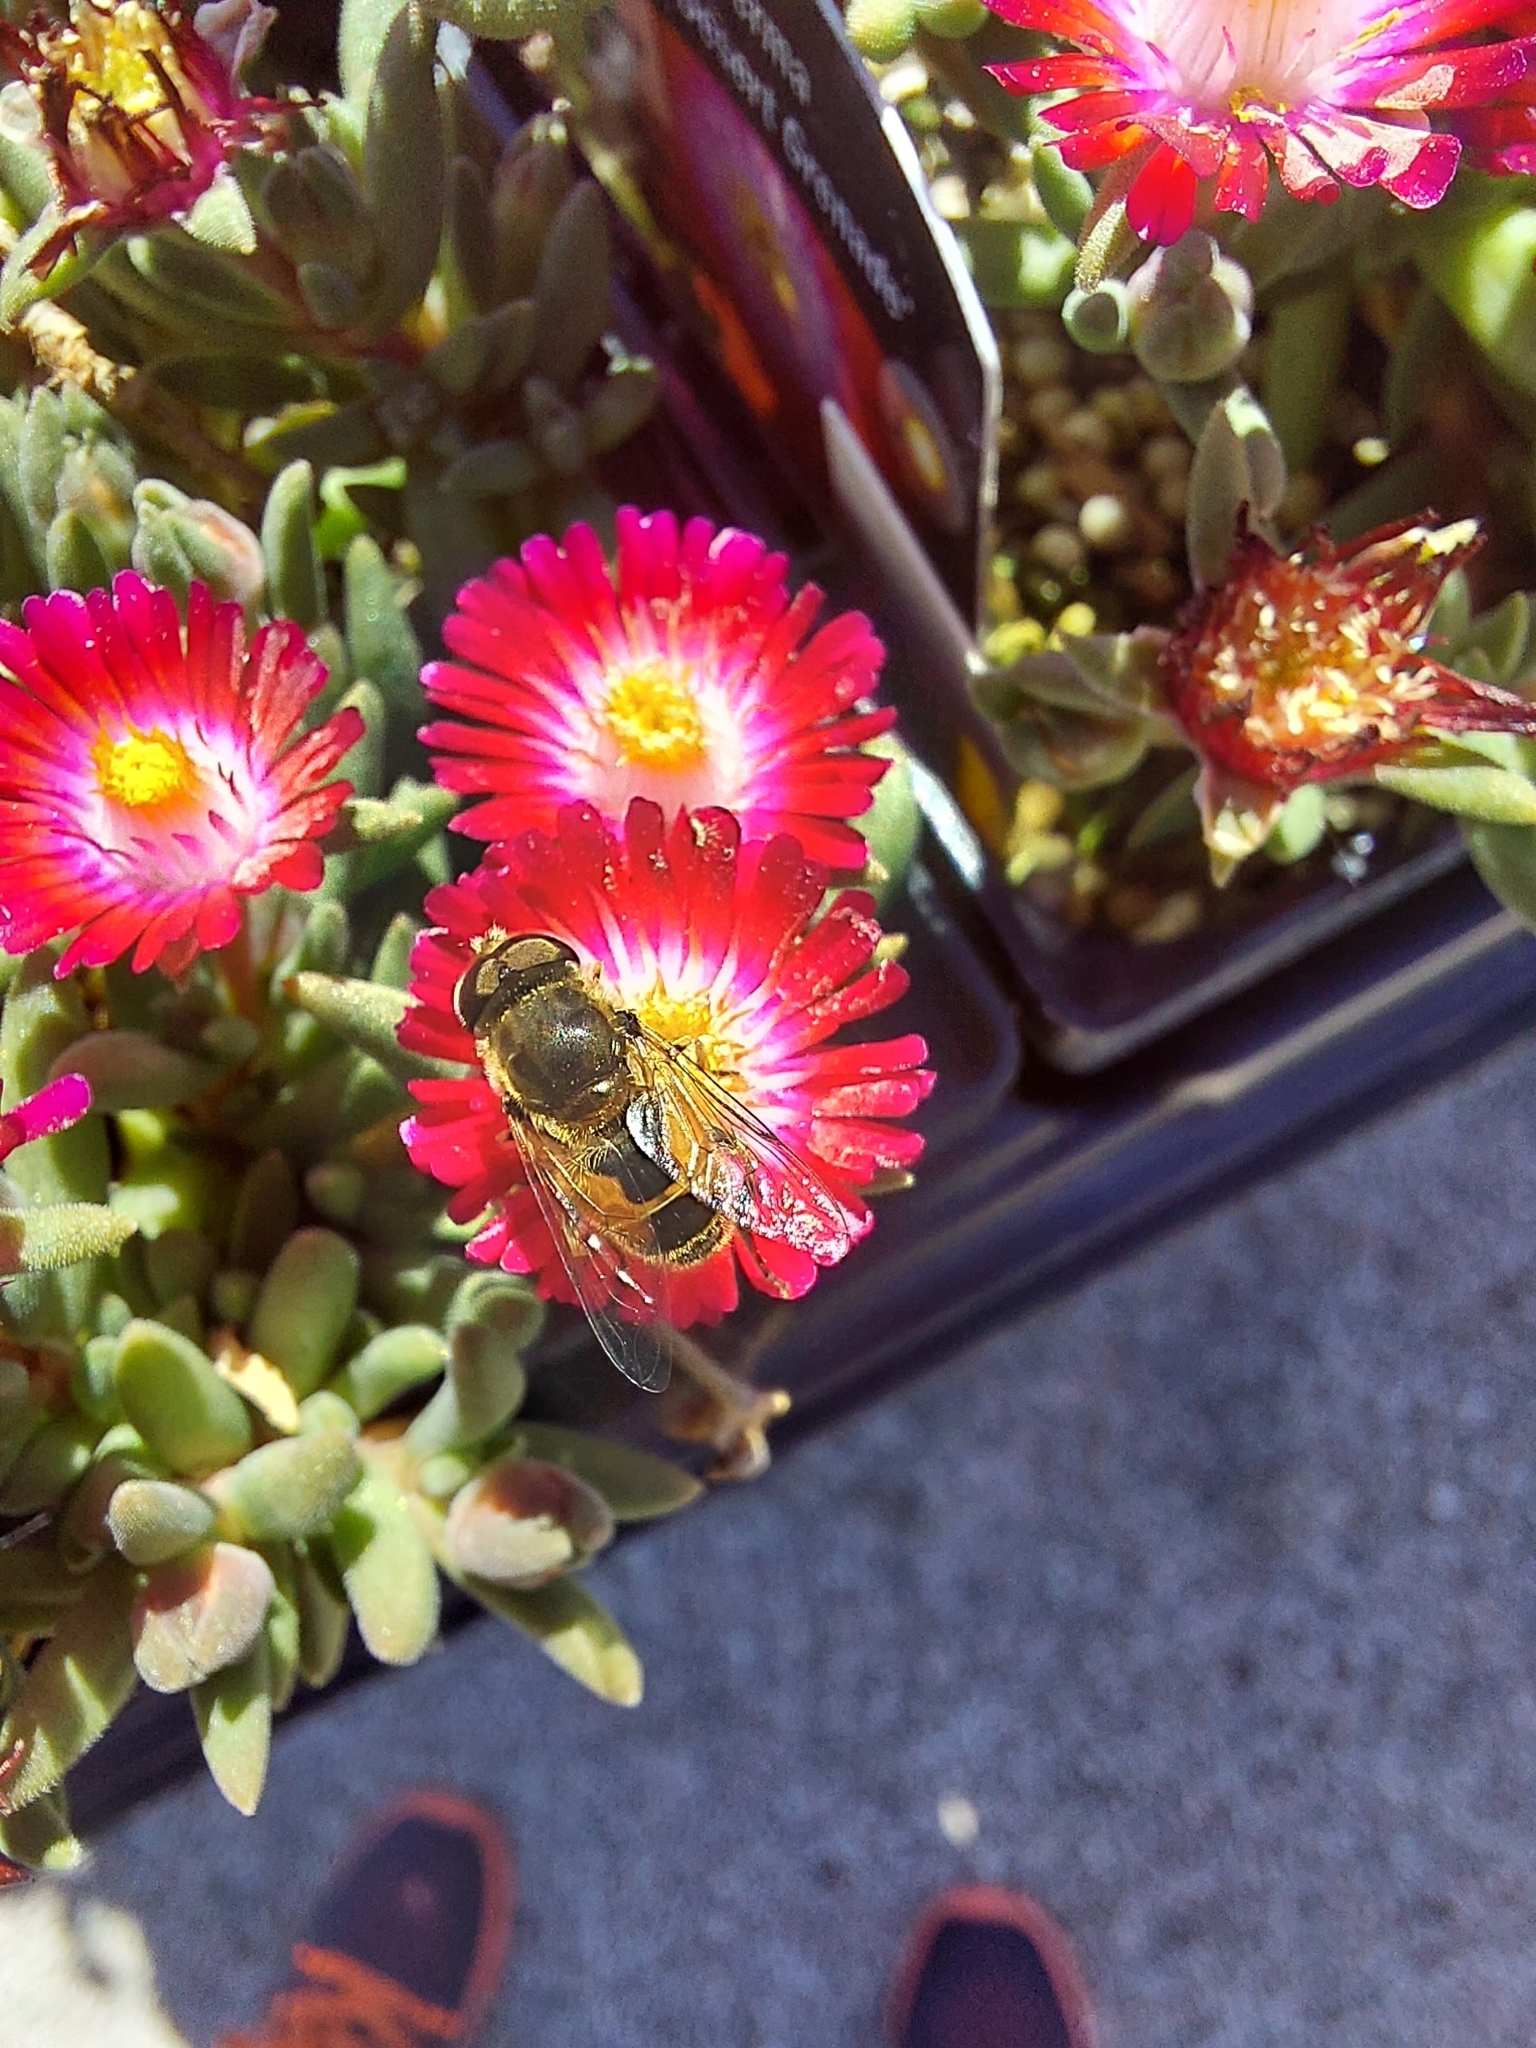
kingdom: Animalia
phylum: Arthropoda
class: Insecta
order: Diptera
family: Syrphidae
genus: Eristalis
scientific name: Eristalis arbustorum
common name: Hover fly
